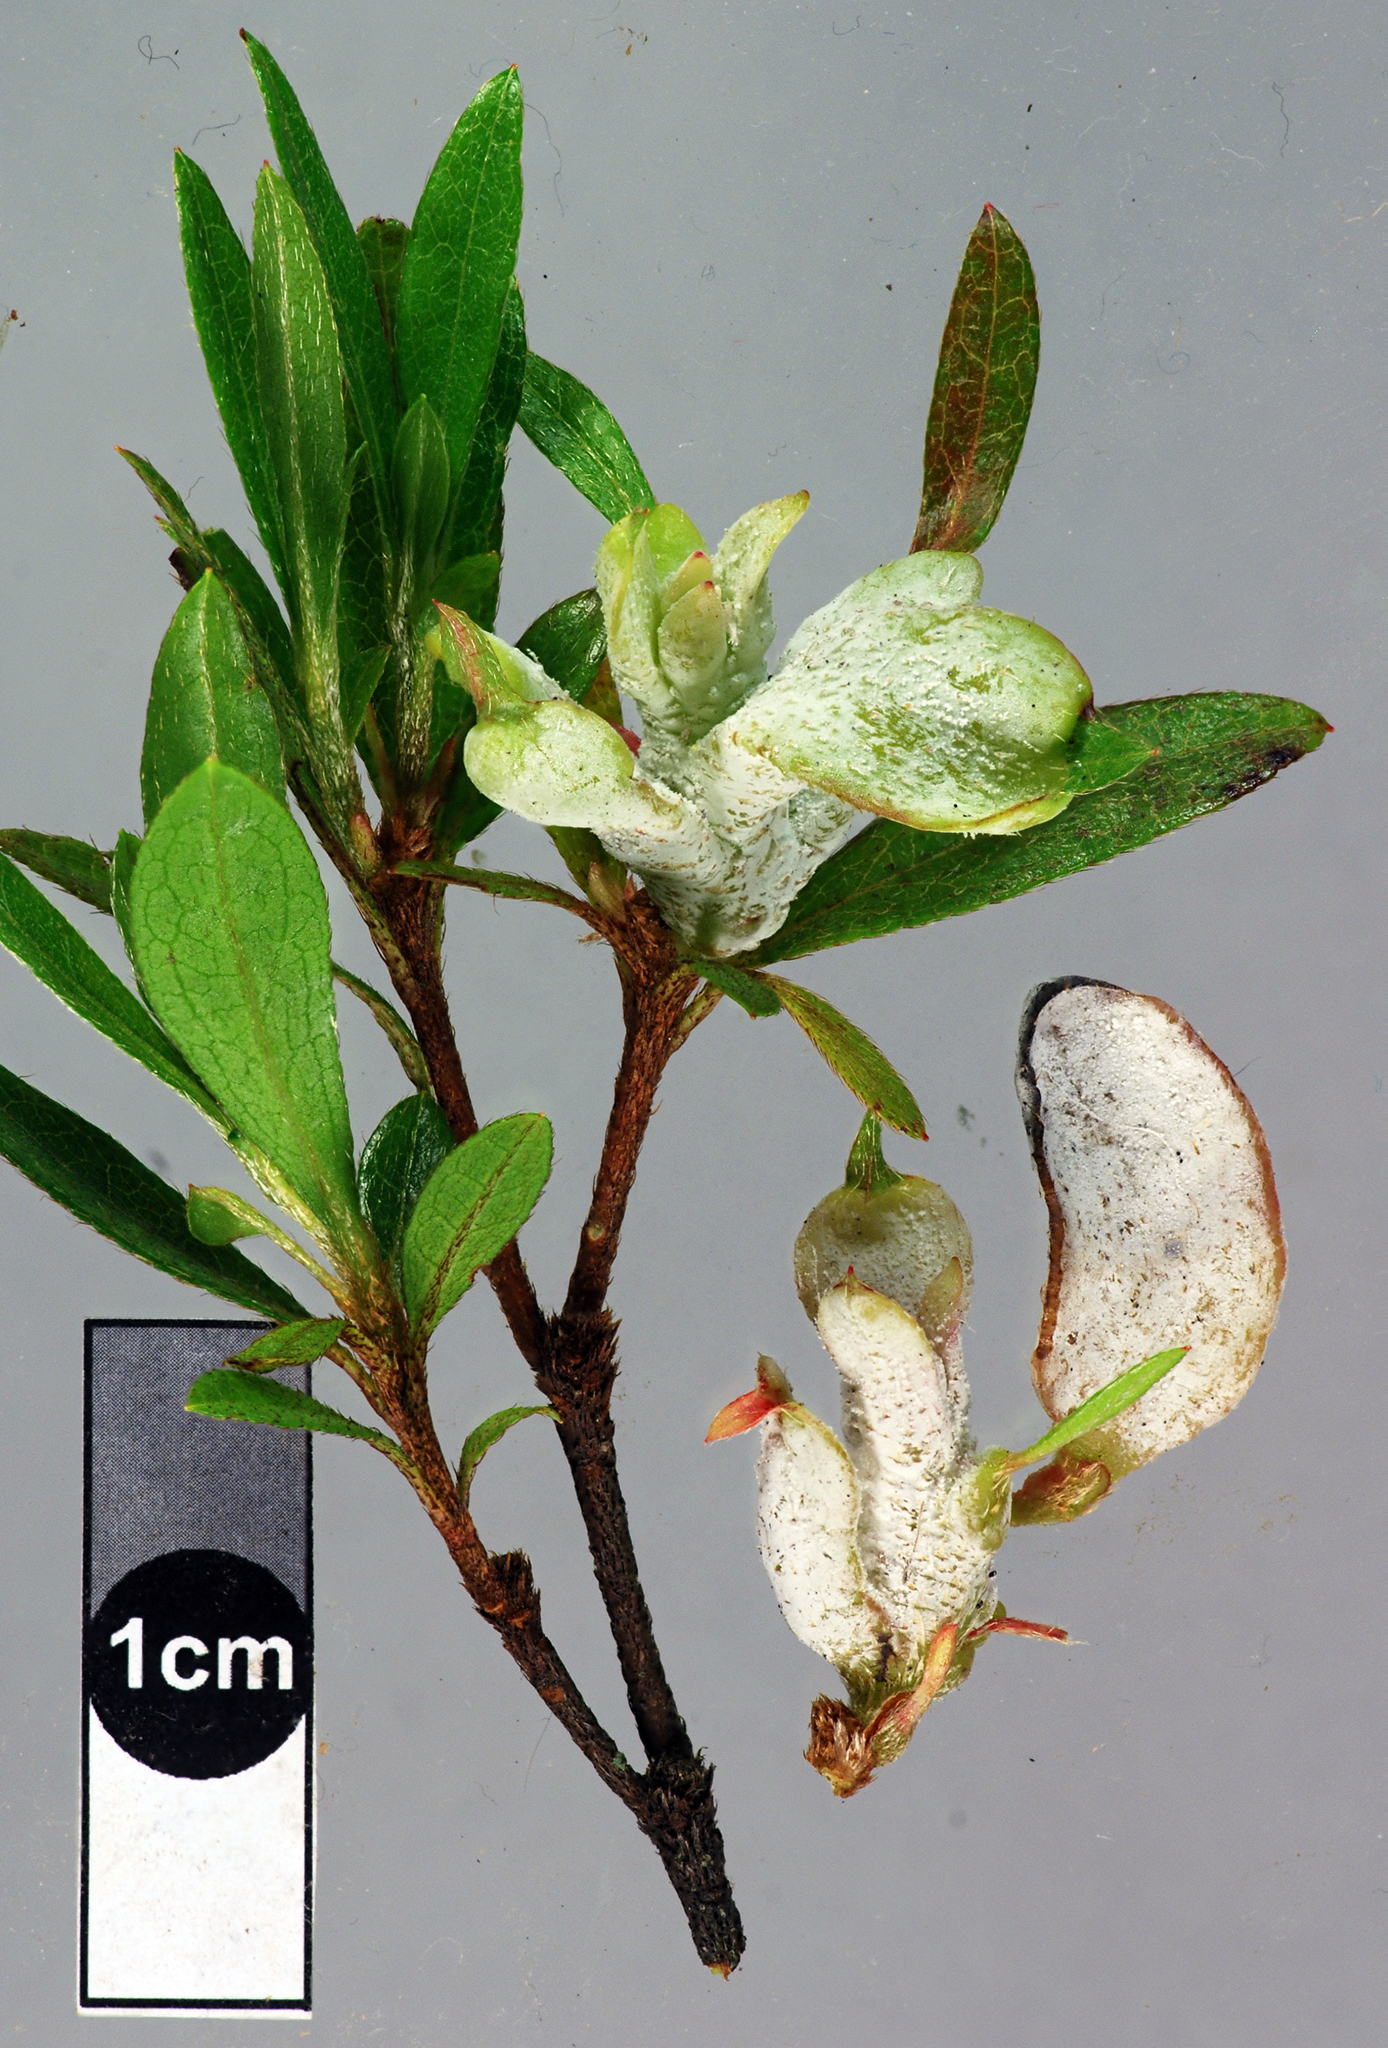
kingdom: Fungi
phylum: Basidiomycota
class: Exobasidiomycetes
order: Exobasidiales
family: Exobasidiaceae
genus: Exobasidium
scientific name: Exobasidium japonicum
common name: Azalea gall
